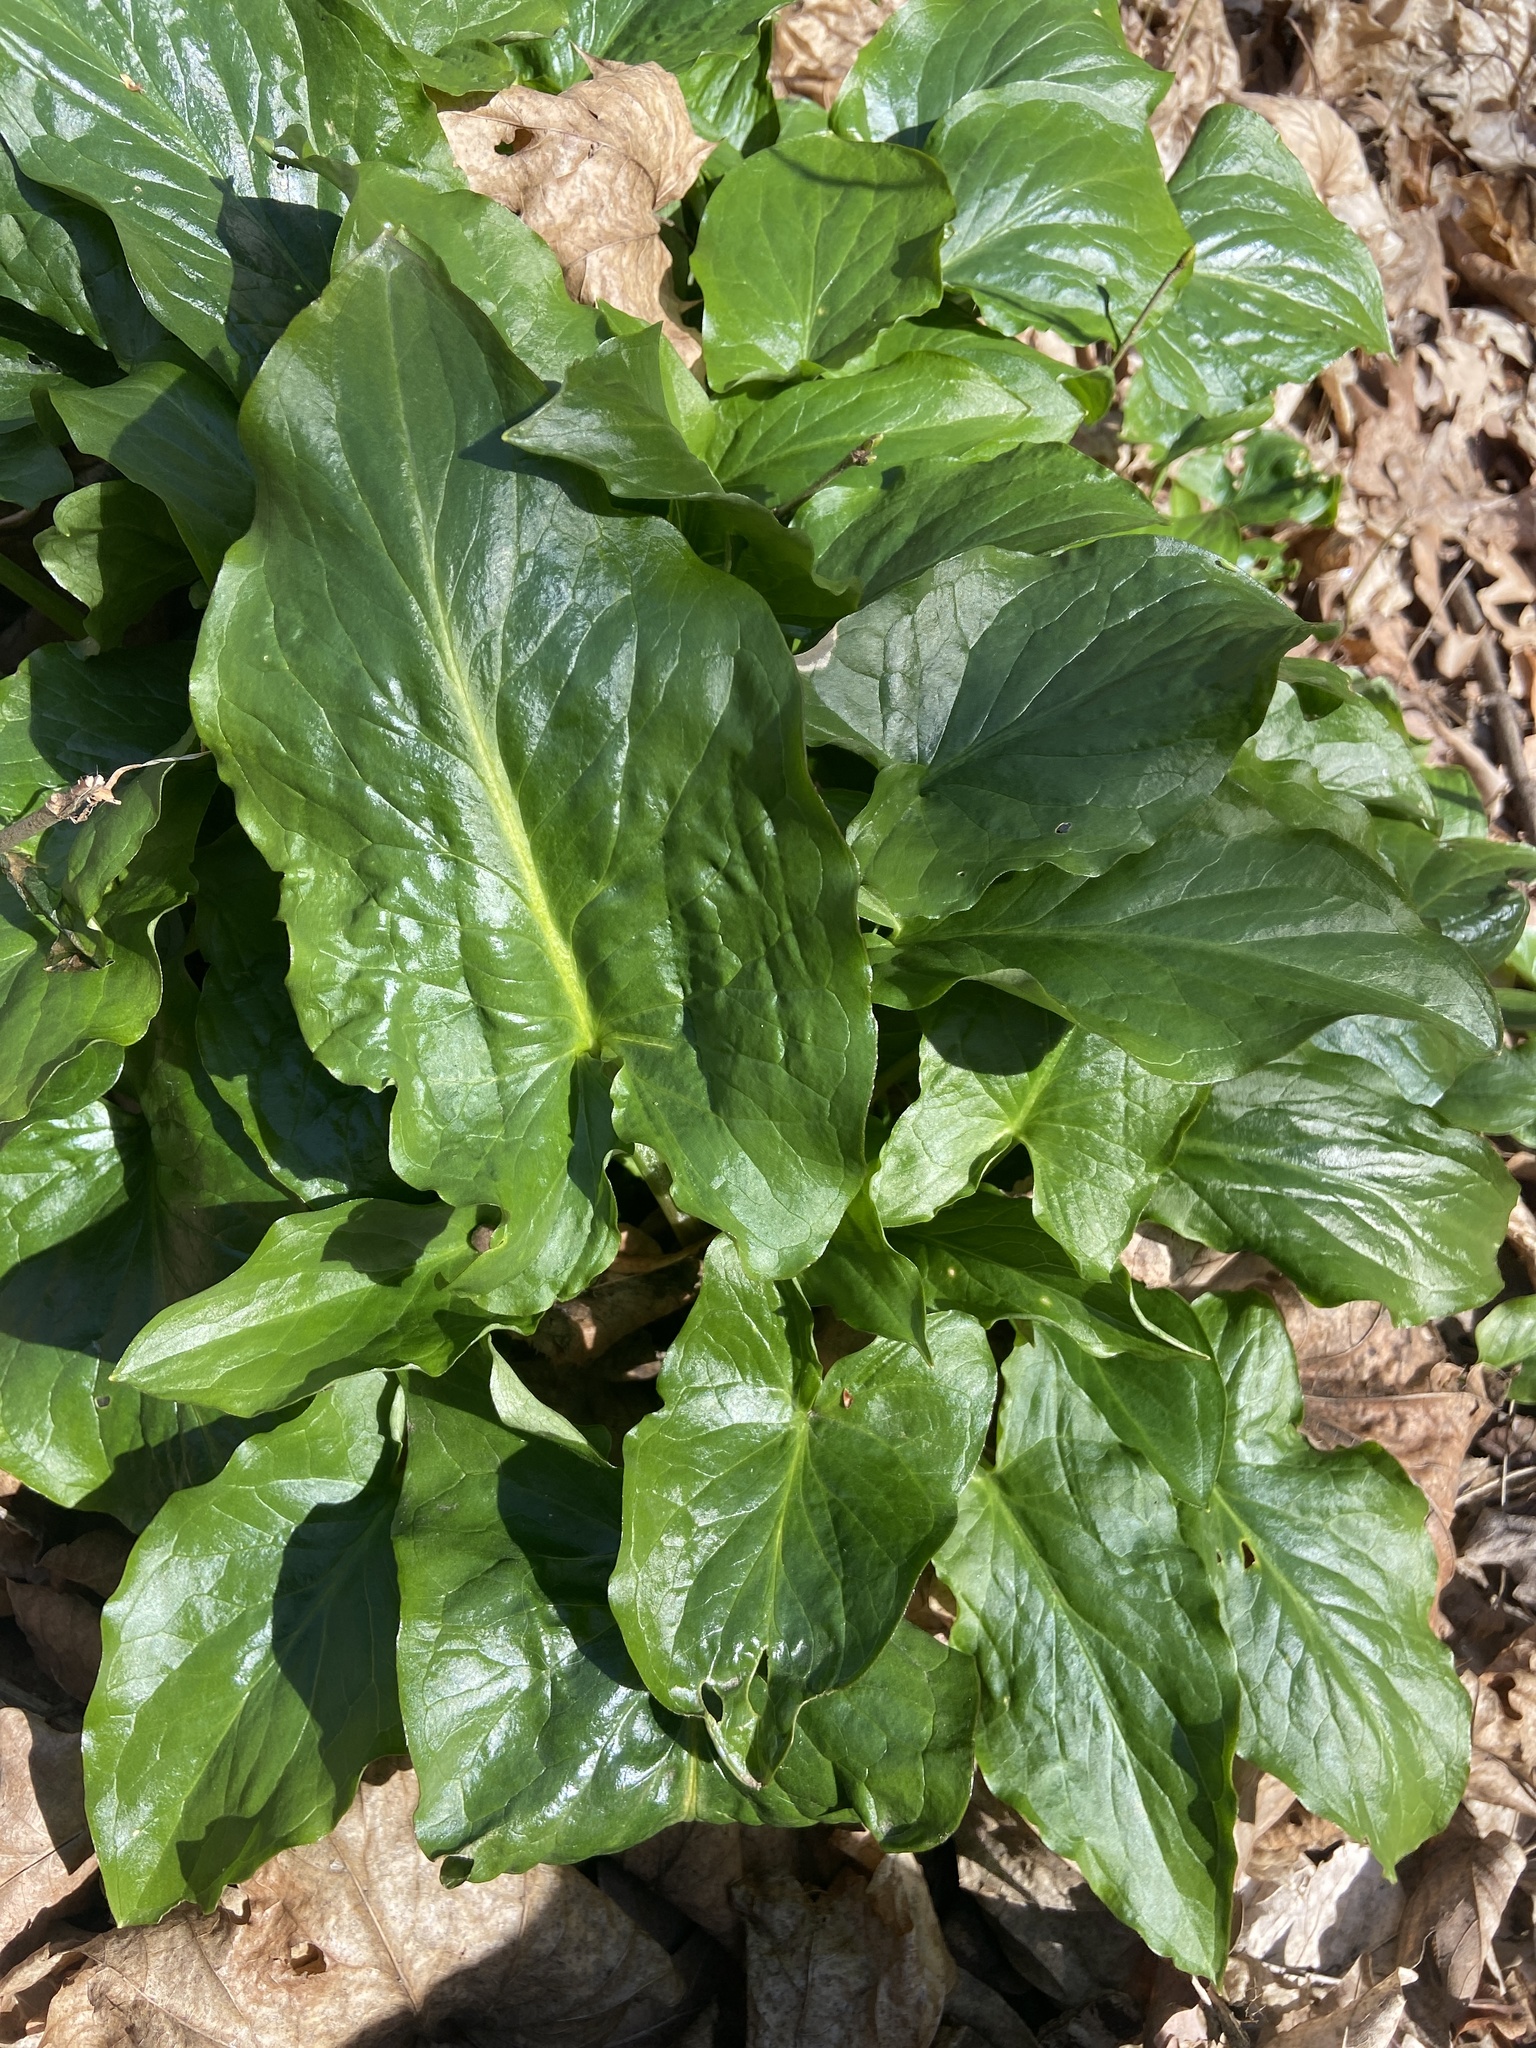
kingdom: Plantae
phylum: Tracheophyta
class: Liliopsida
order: Alismatales
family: Araceae
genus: Arum
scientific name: Arum maculatum
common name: Lords-and-ladies
